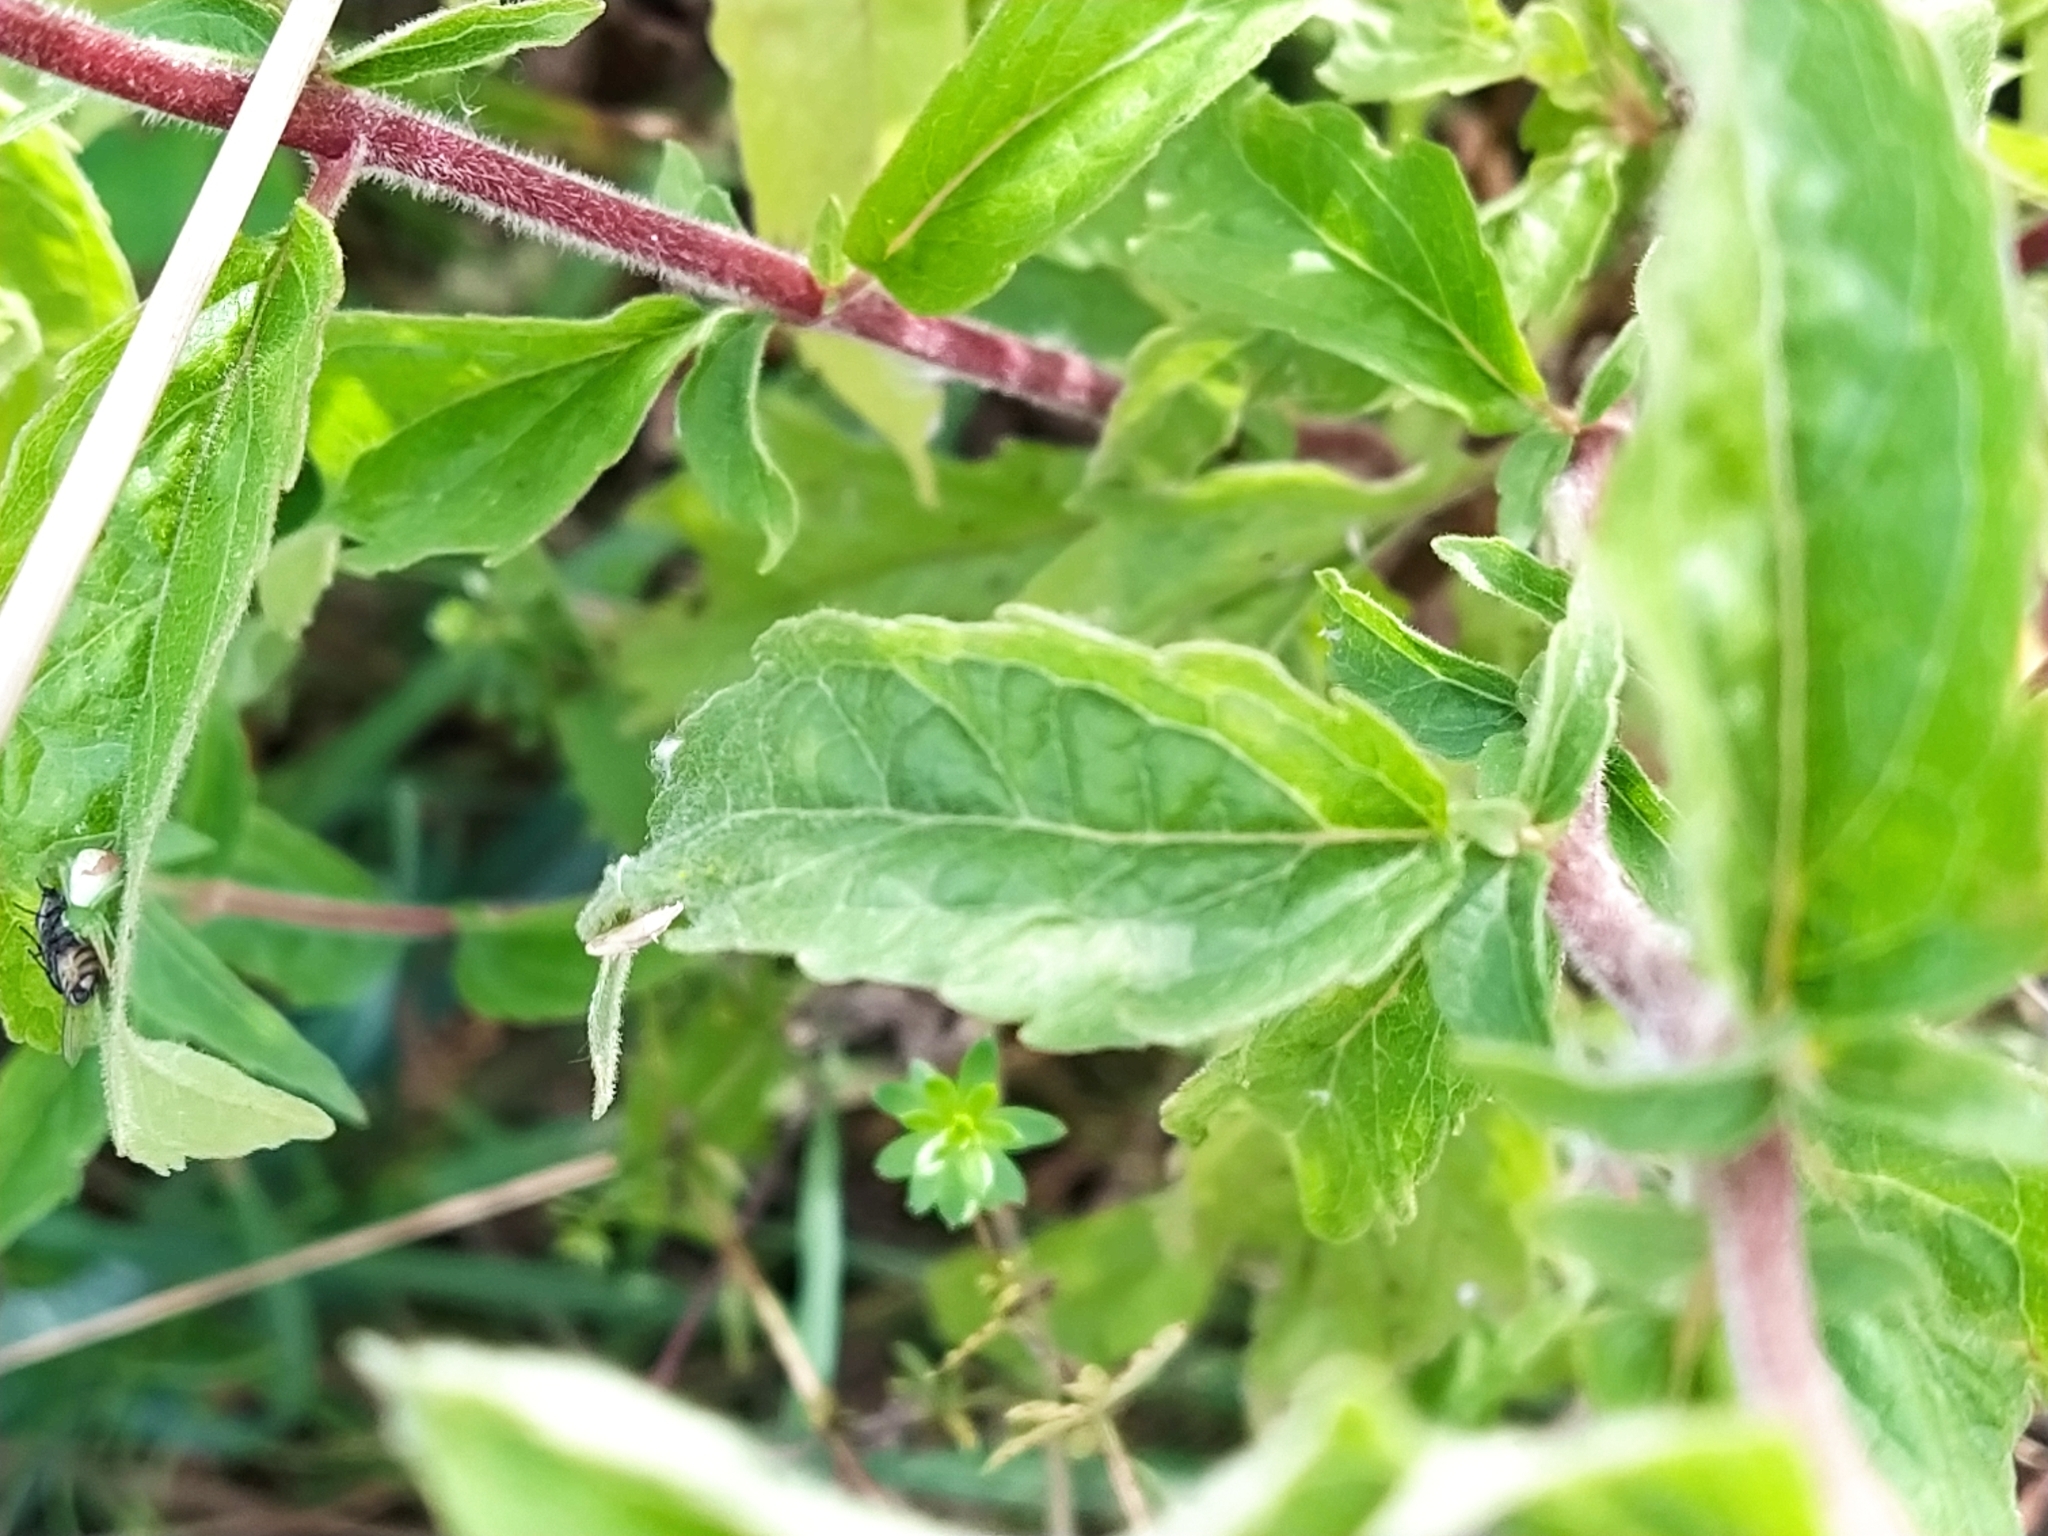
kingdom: Plantae
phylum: Tracheophyta
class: Magnoliopsida
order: Asterales
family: Asteraceae
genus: Eupatorium
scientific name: Eupatorium cannabinum
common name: Hemp-agrimony
